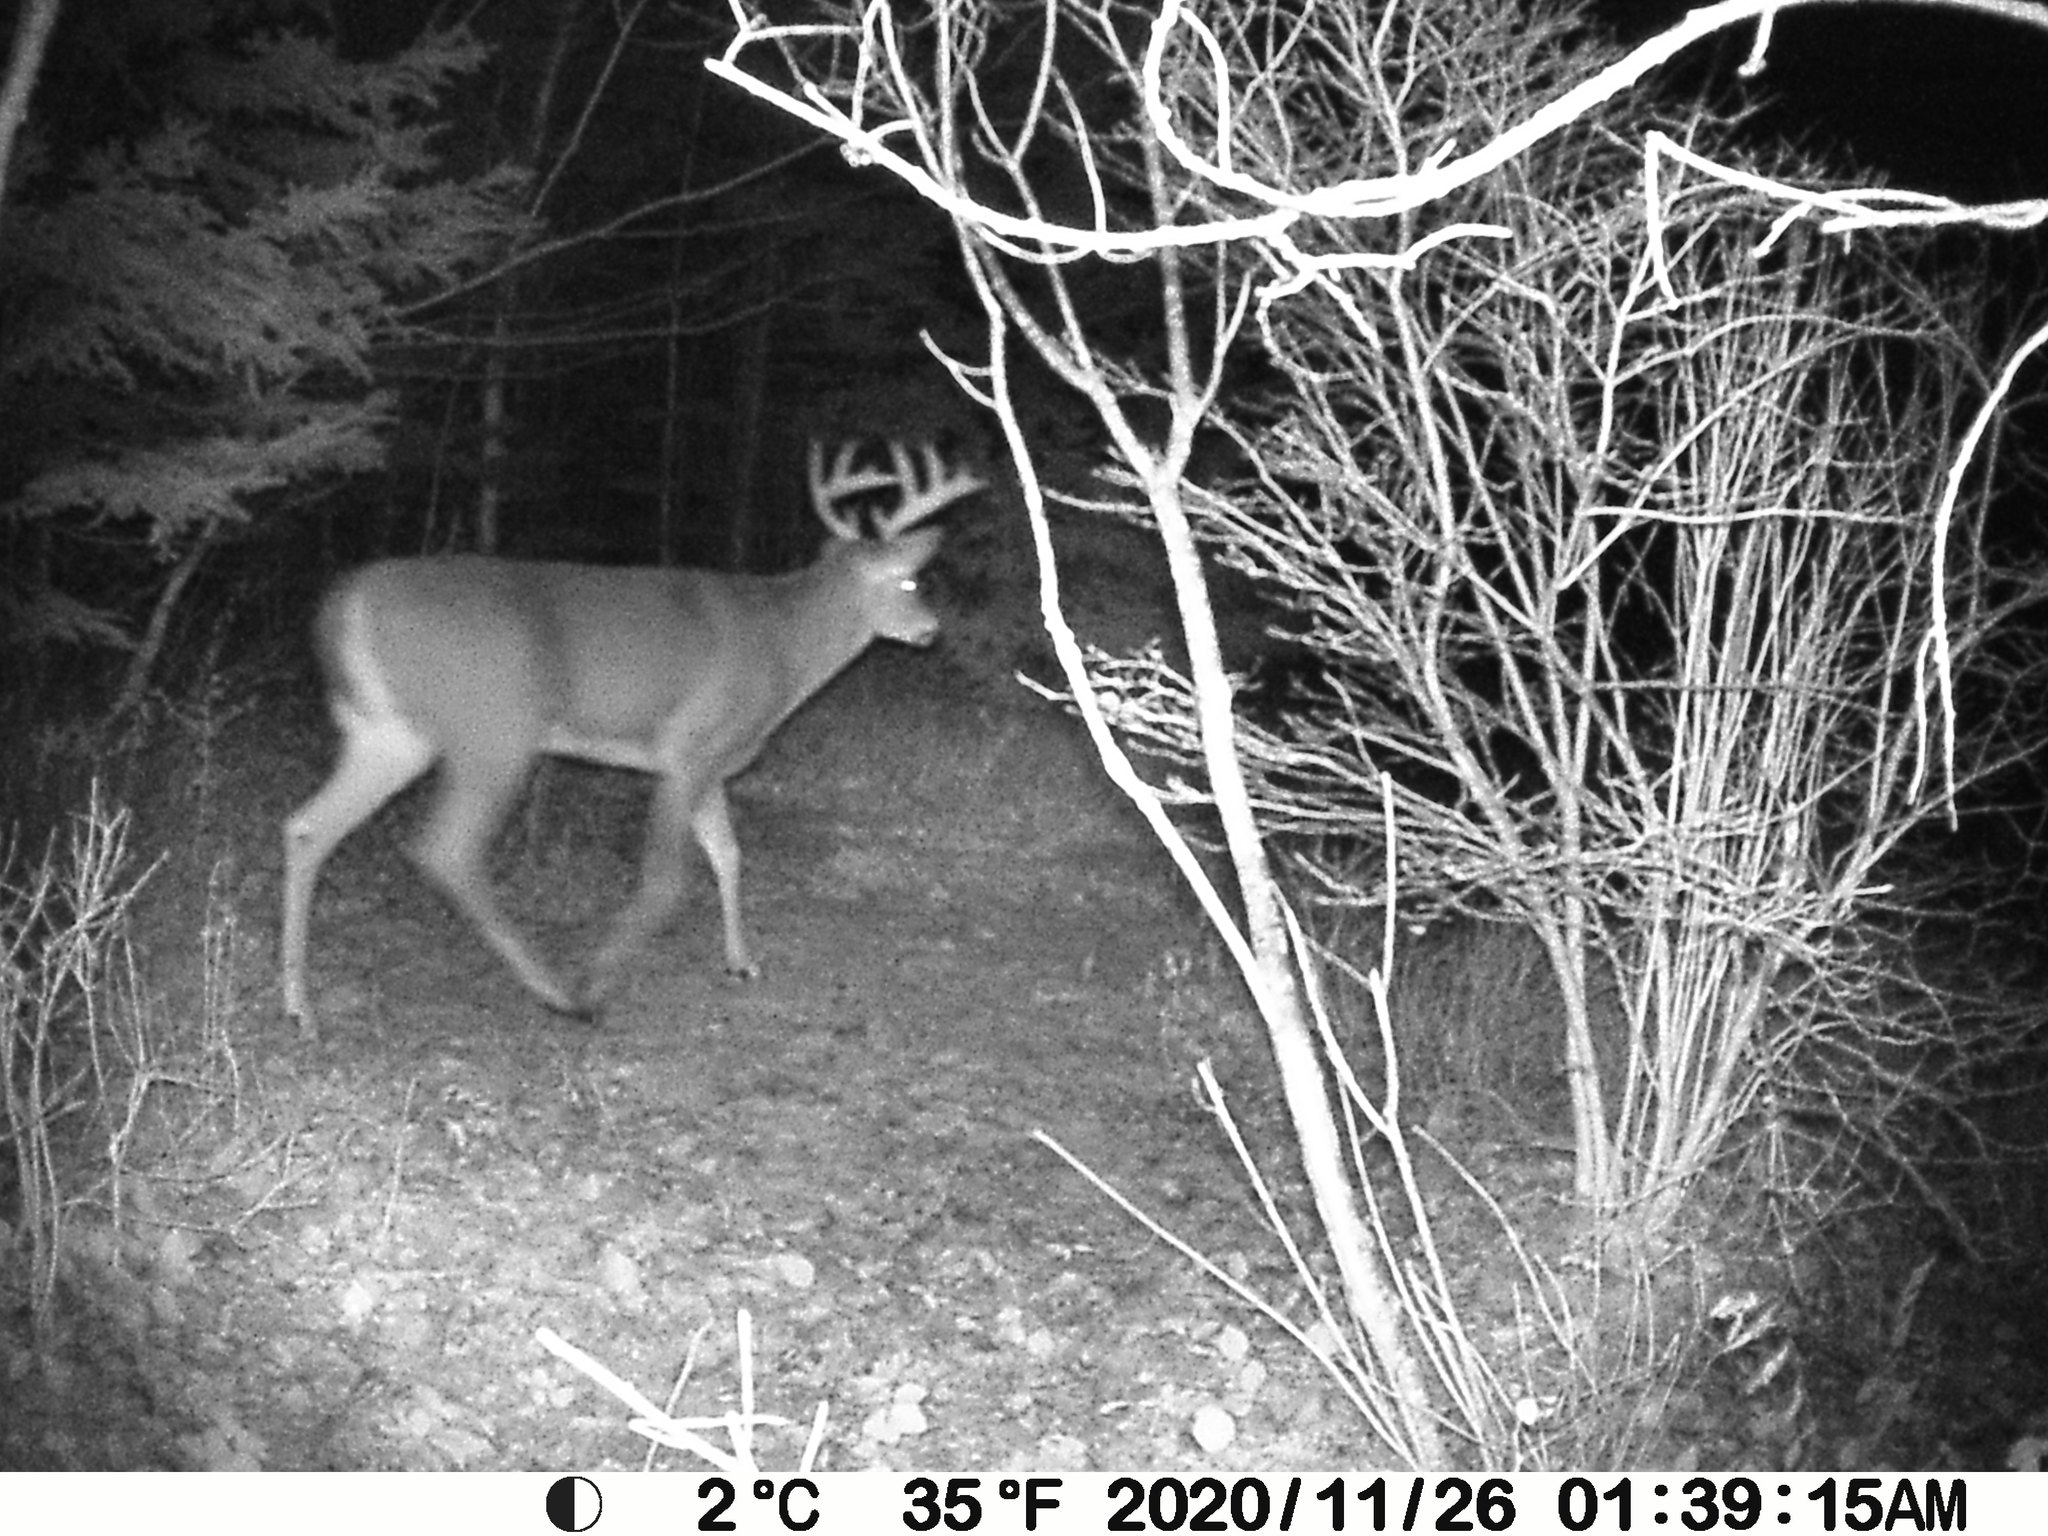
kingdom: Animalia
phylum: Chordata
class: Mammalia
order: Artiodactyla
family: Cervidae
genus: Odocoileus
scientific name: Odocoileus virginianus
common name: White-tailed deer
